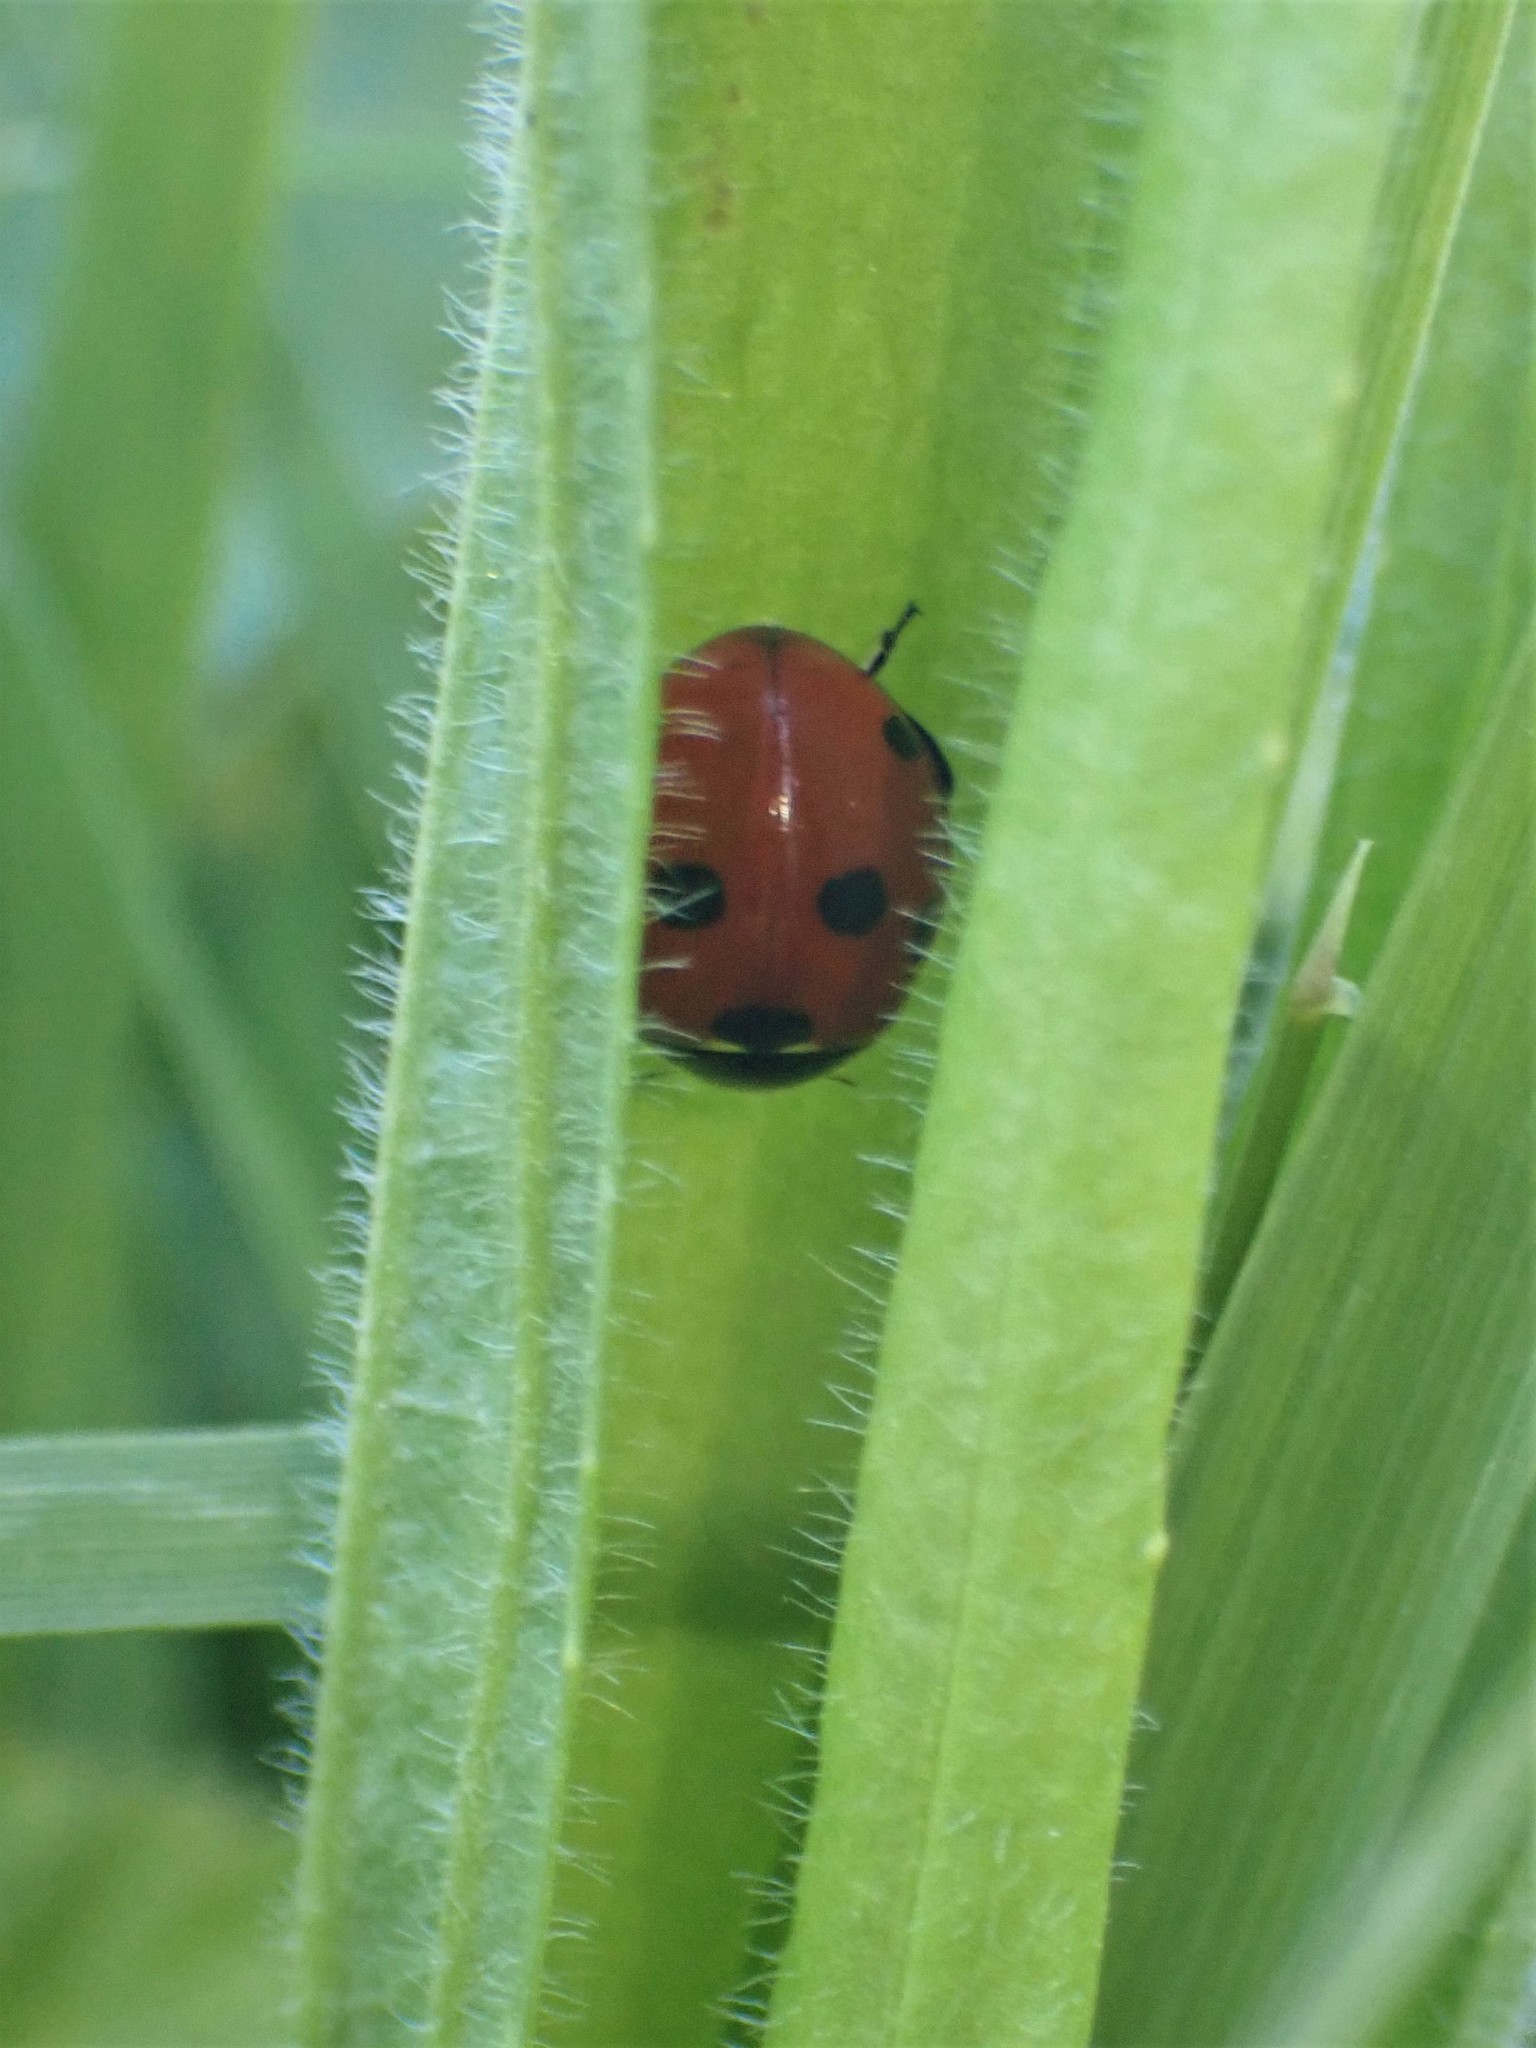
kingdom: Animalia
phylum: Arthropoda
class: Insecta
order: Coleoptera
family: Coccinellidae
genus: Coccinella
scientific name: Coccinella septempunctata
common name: Sevenspotted lady beetle
